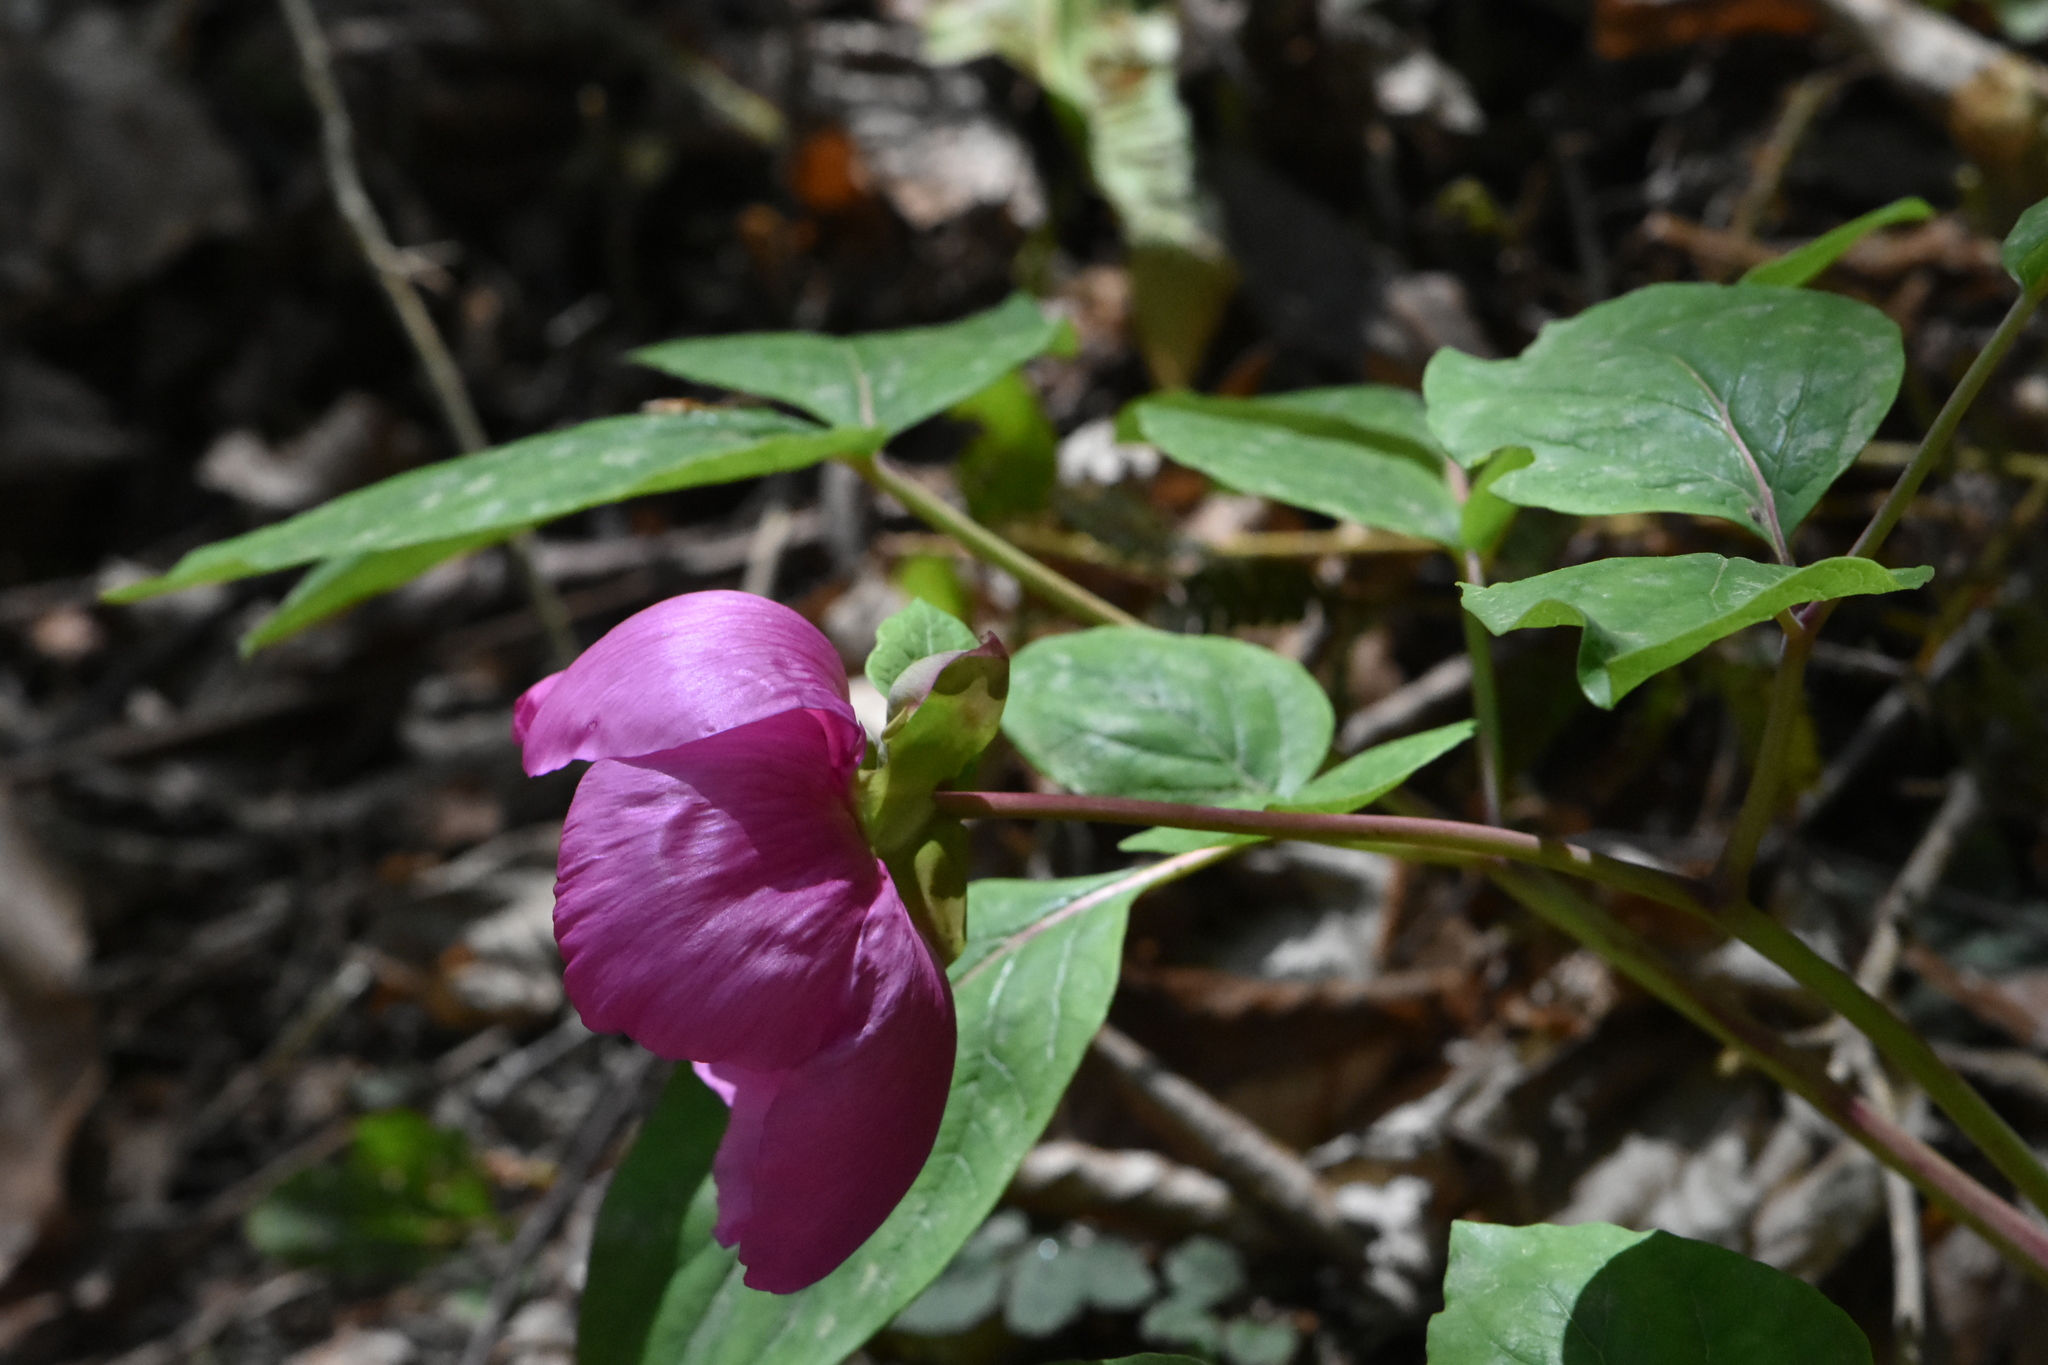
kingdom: Plantae
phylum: Tracheophyta
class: Magnoliopsida
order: Saxifragales
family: Paeoniaceae
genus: Paeonia
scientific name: Paeonia caucasica
